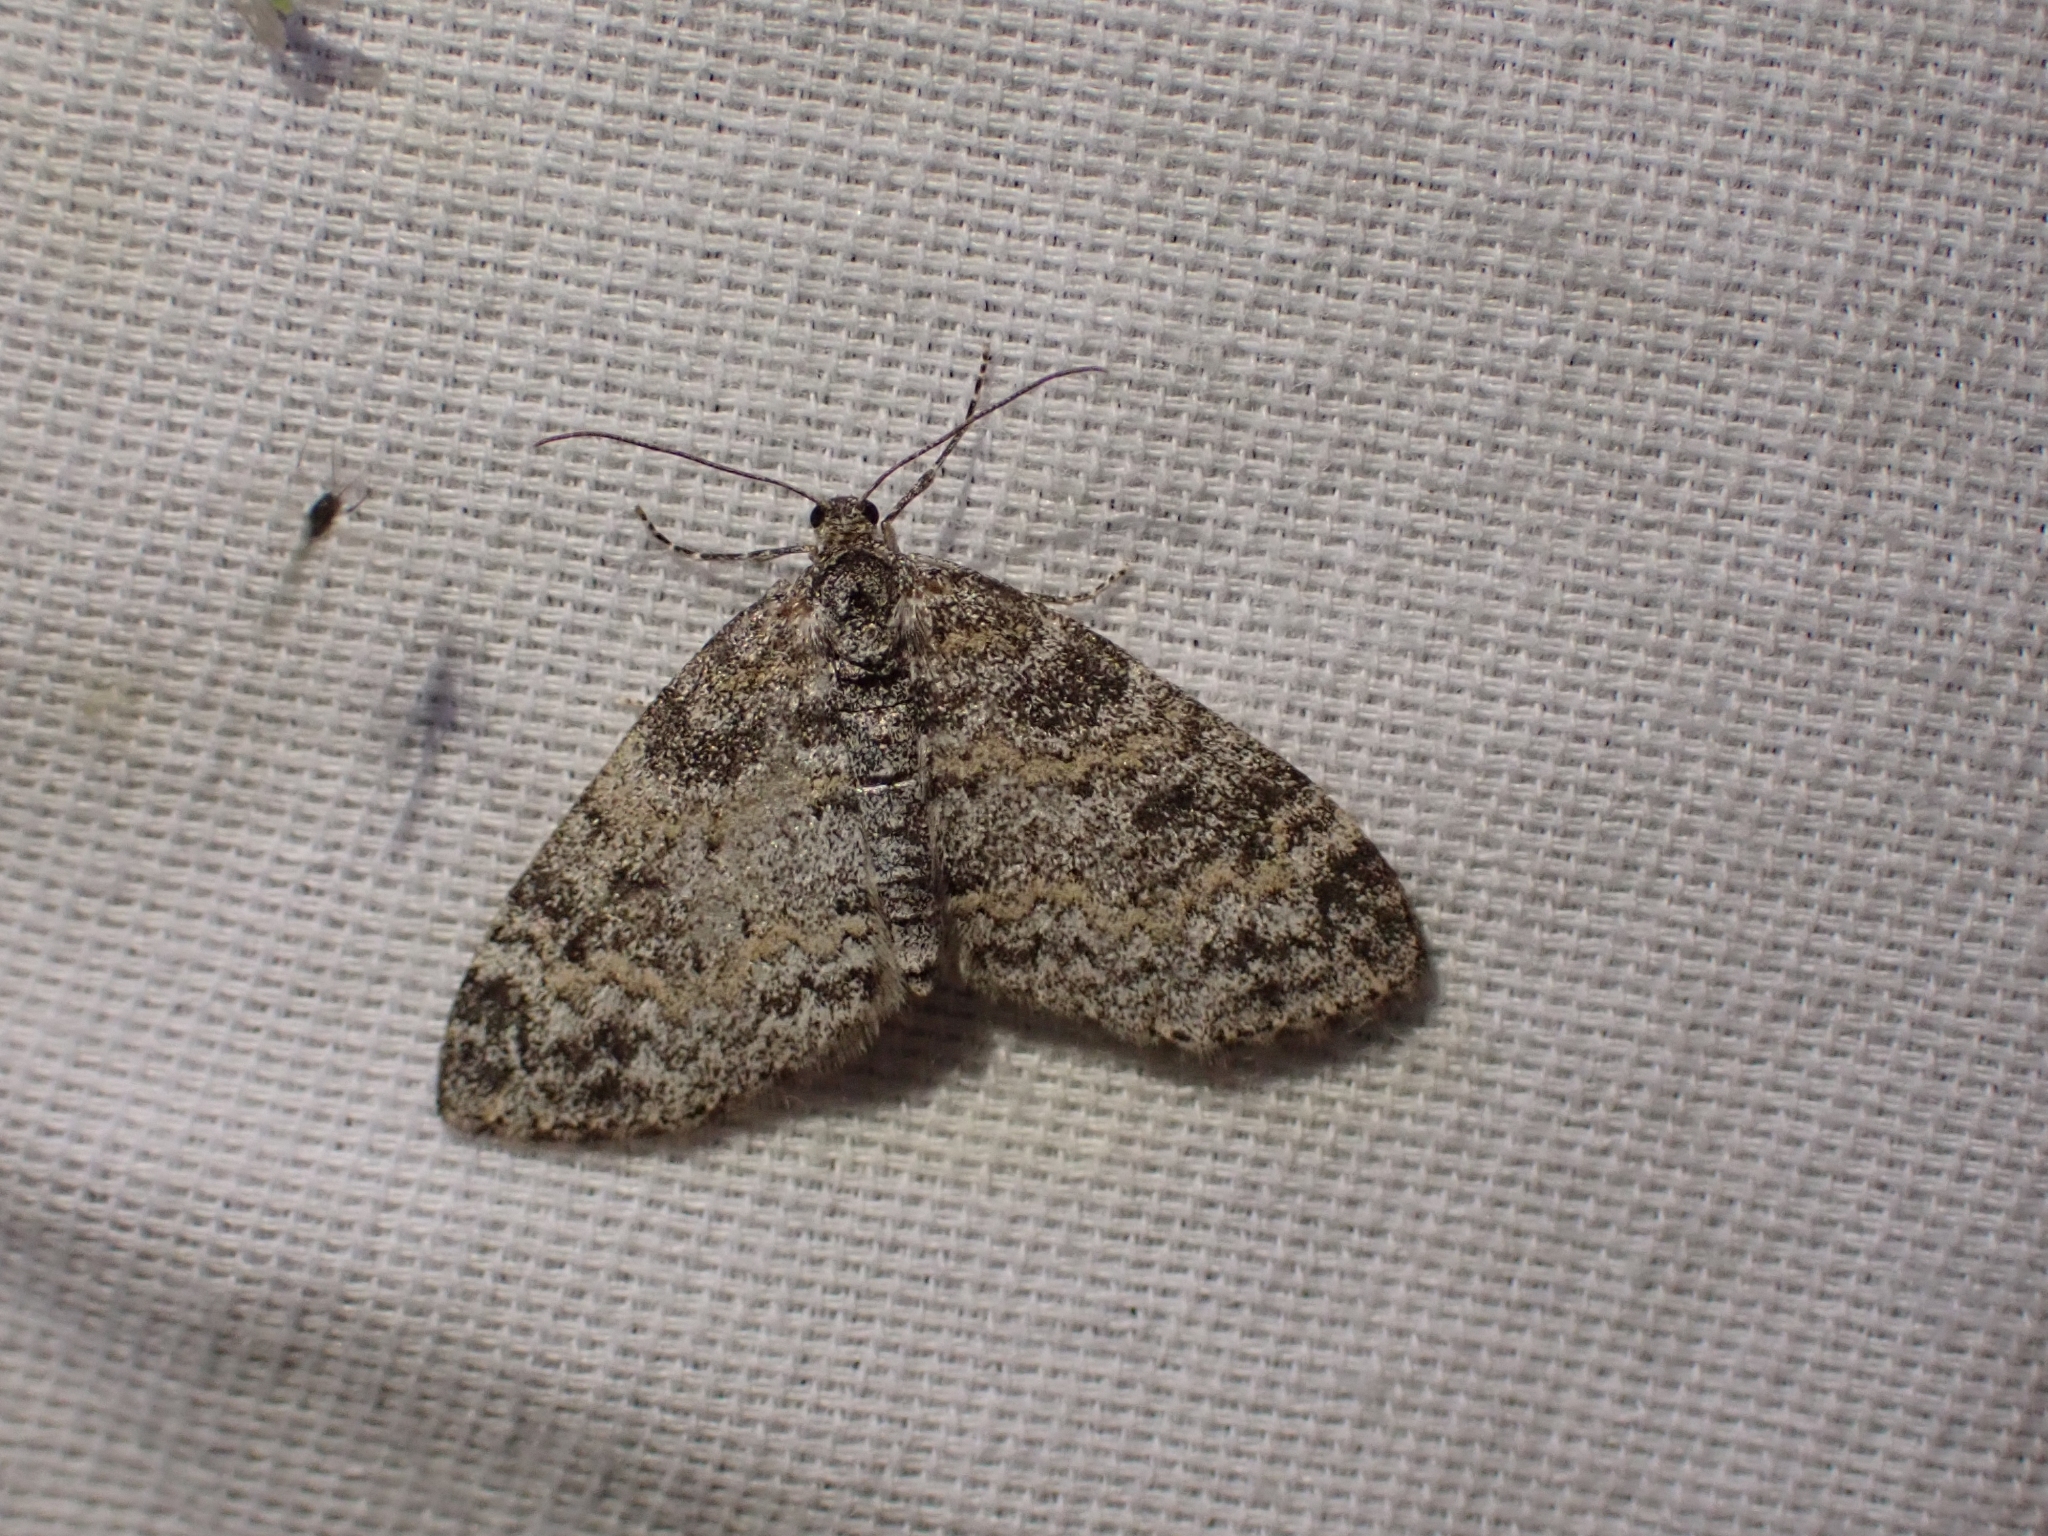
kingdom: Animalia
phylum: Arthropoda
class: Insecta
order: Lepidoptera
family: Geometridae
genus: Lobophora
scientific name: Lobophora nivigerata
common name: Powdered bigwing
